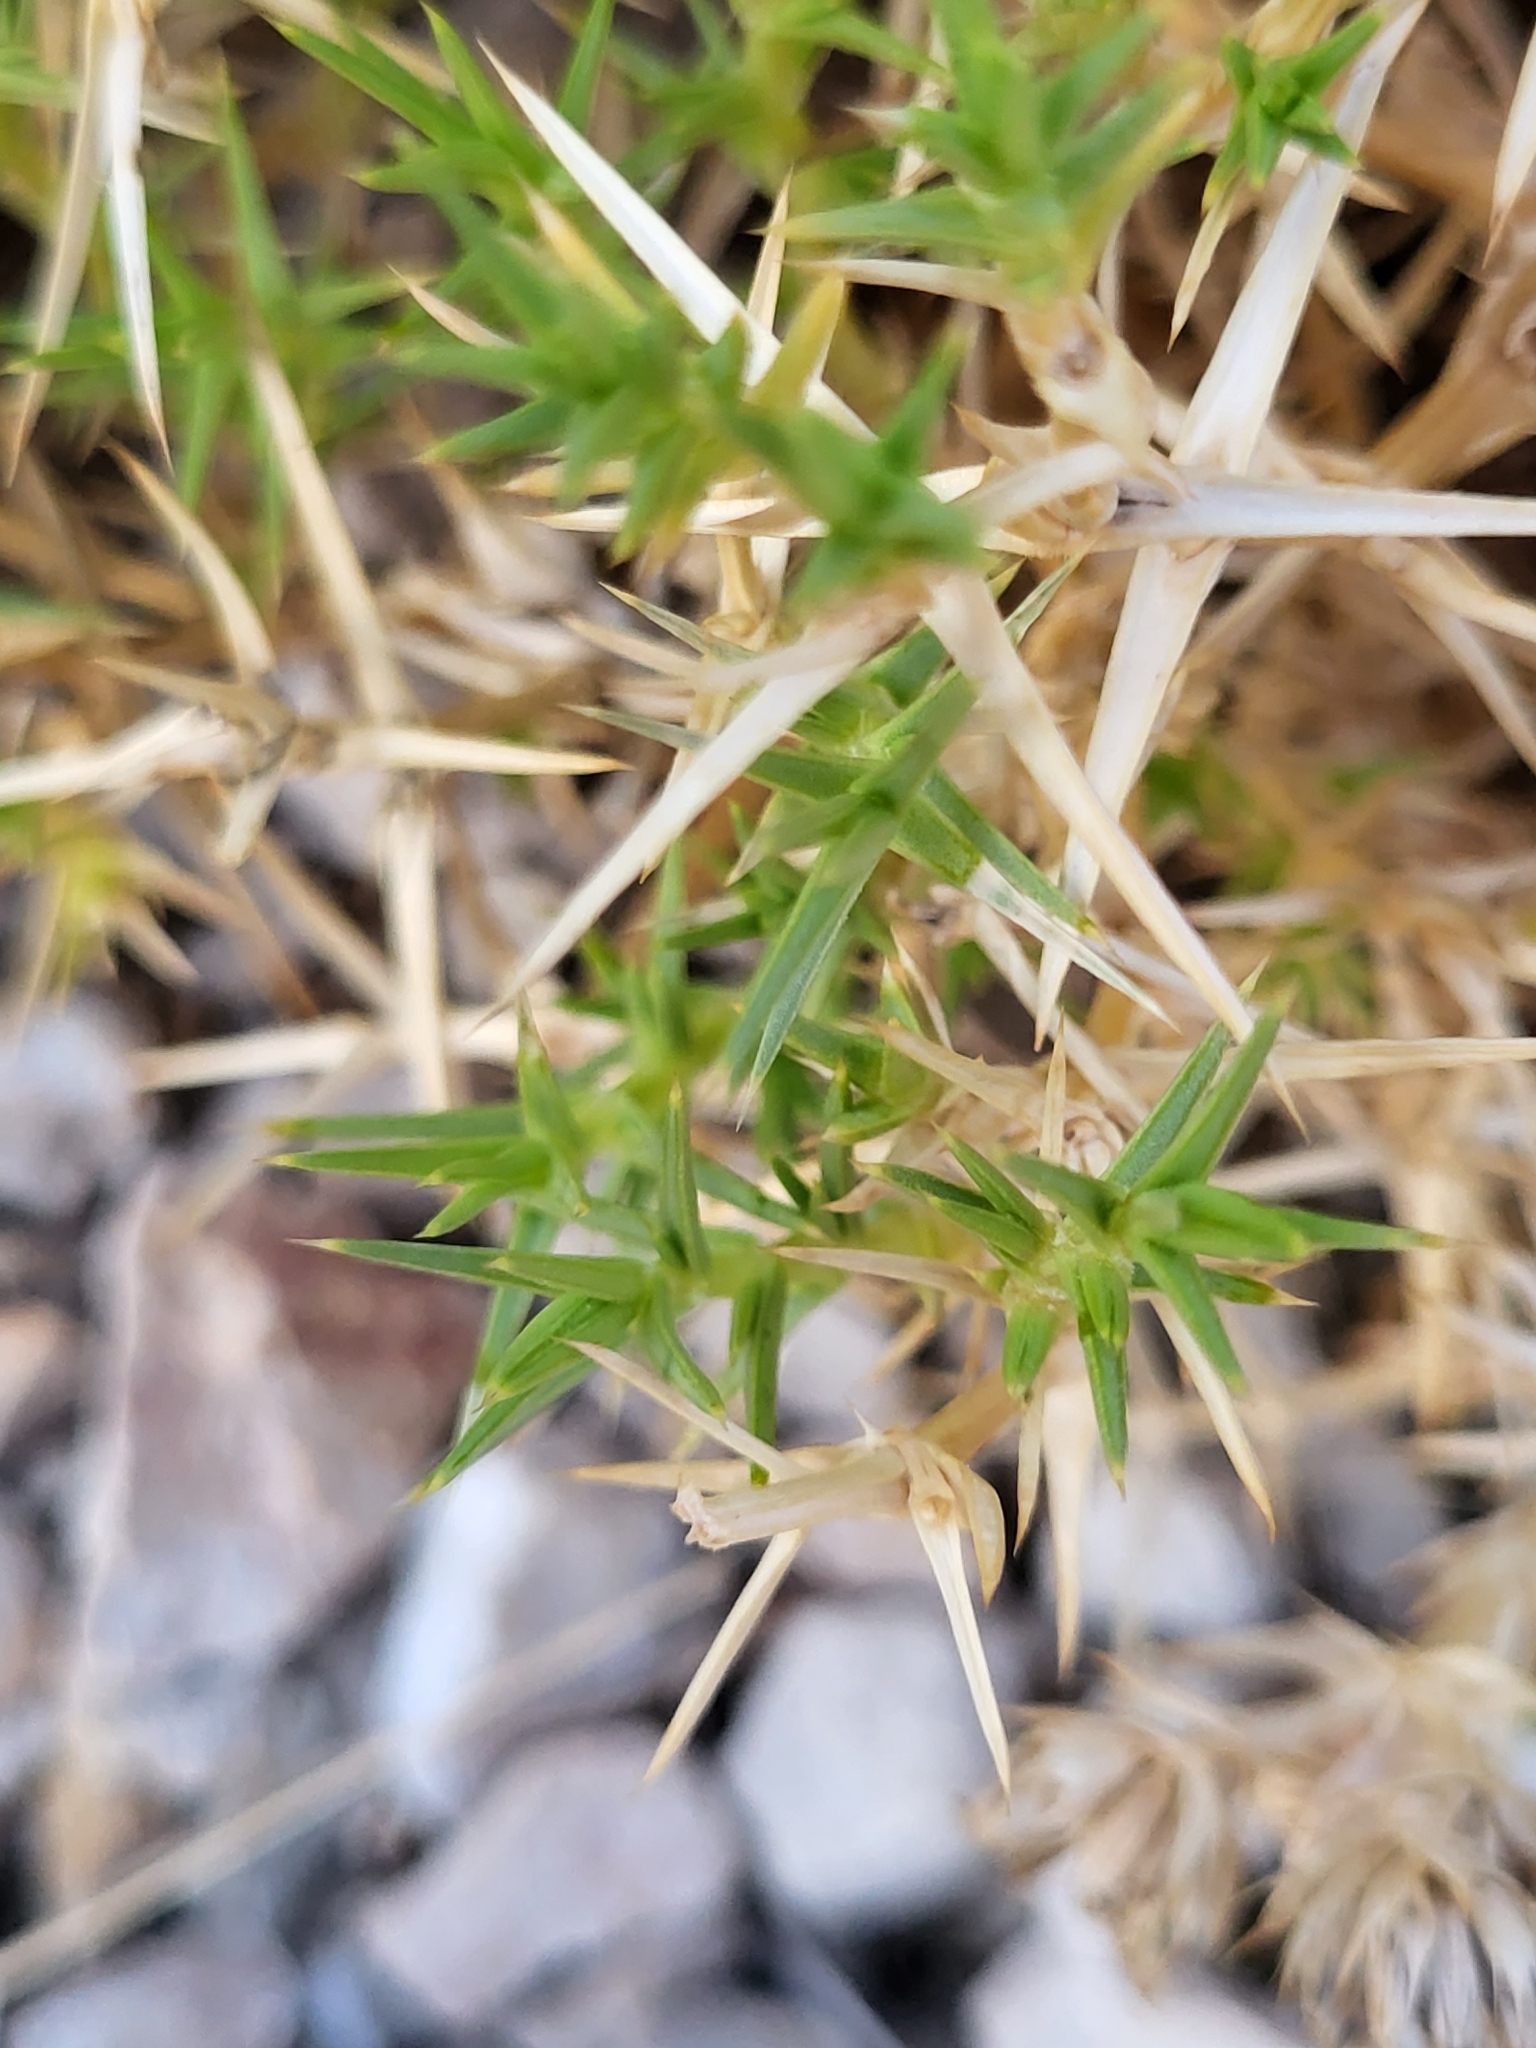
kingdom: Plantae
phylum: Tracheophyta
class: Magnoliopsida
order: Caryophyllales
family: Caryophyllaceae
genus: Drypis
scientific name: Drypis spinosa
